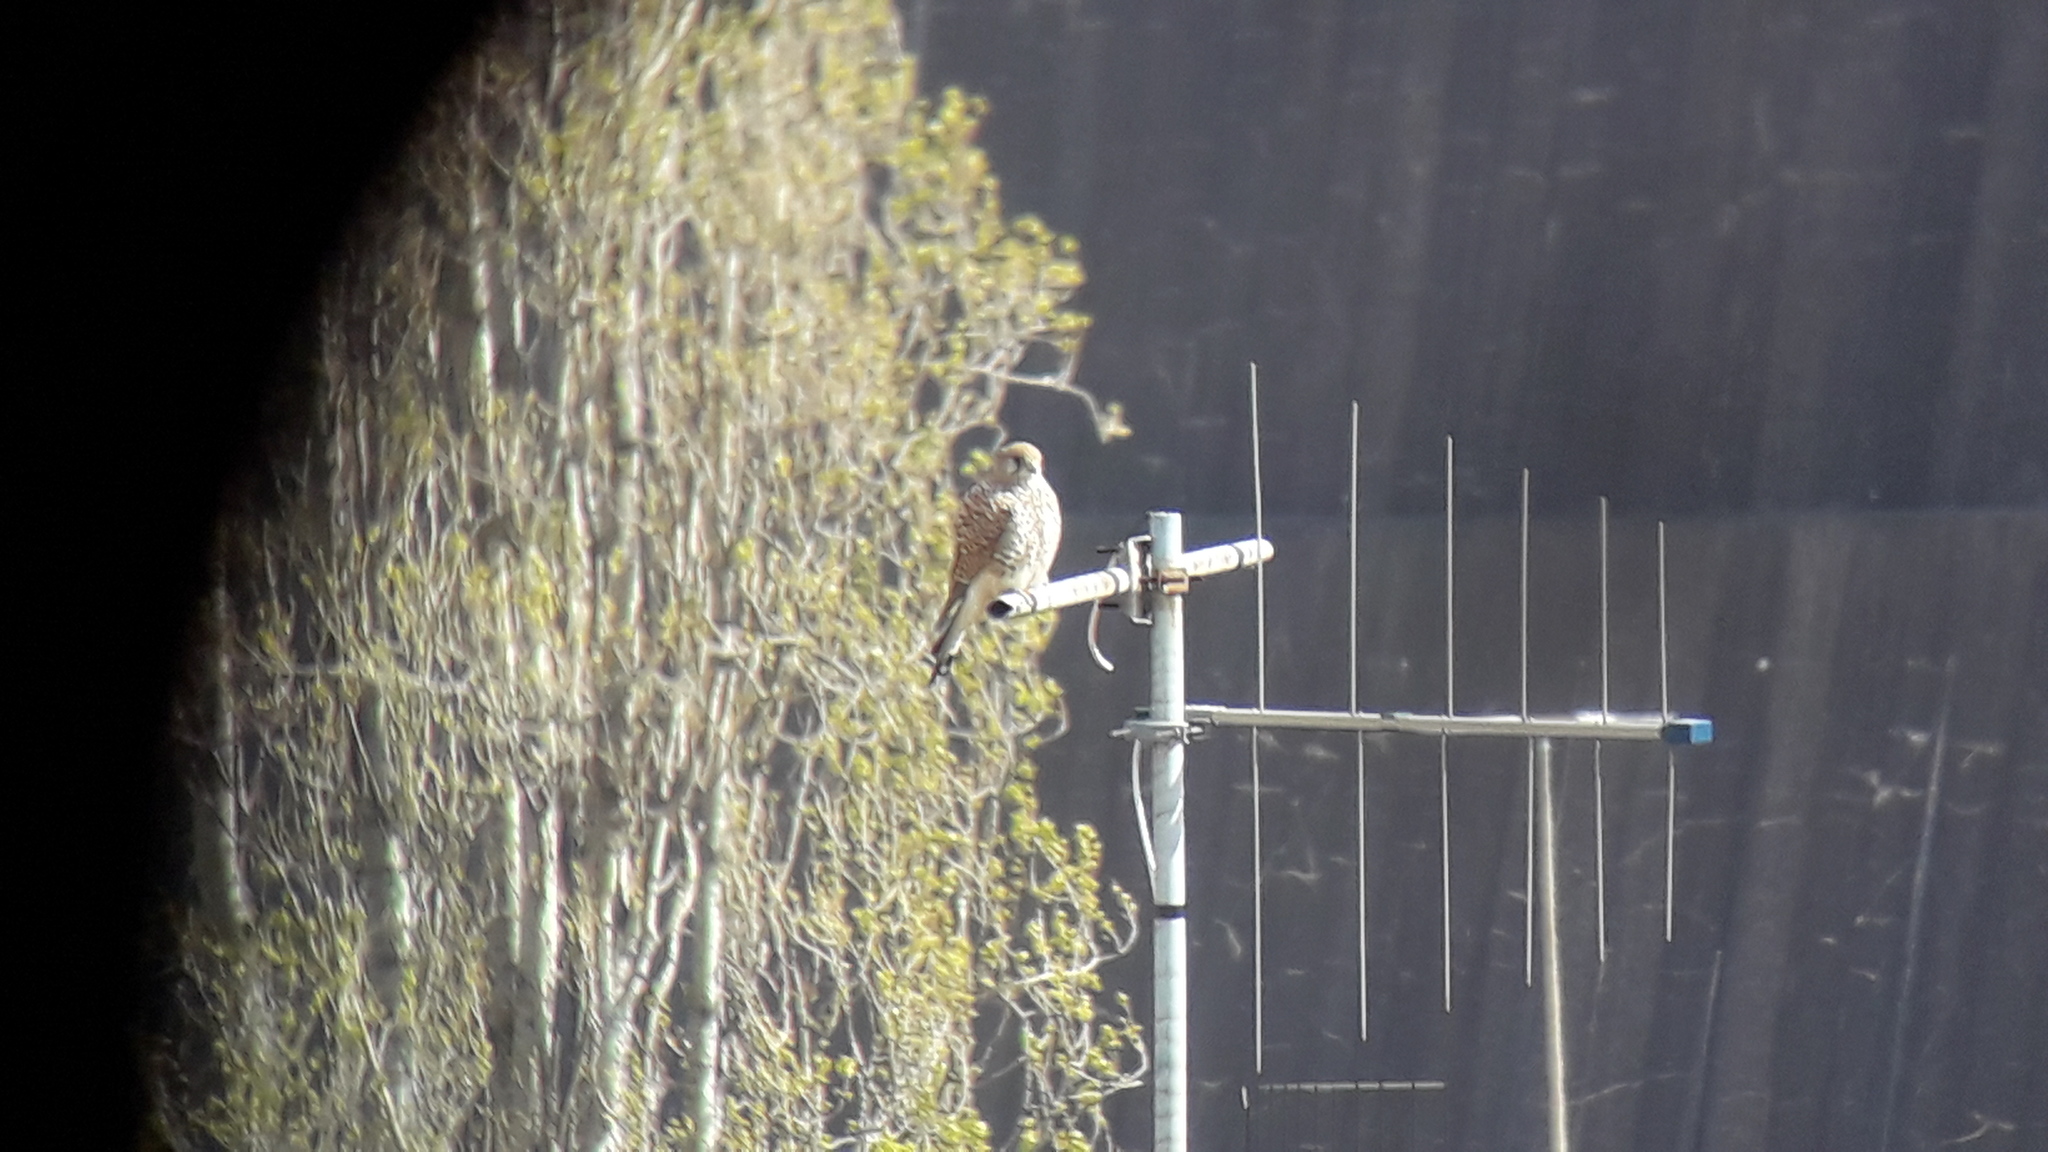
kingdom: Animalia
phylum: Chordata
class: Aves
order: Falconiformes
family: Falconidae
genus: Falco
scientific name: Falco tinnunculus
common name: Common kestrel
